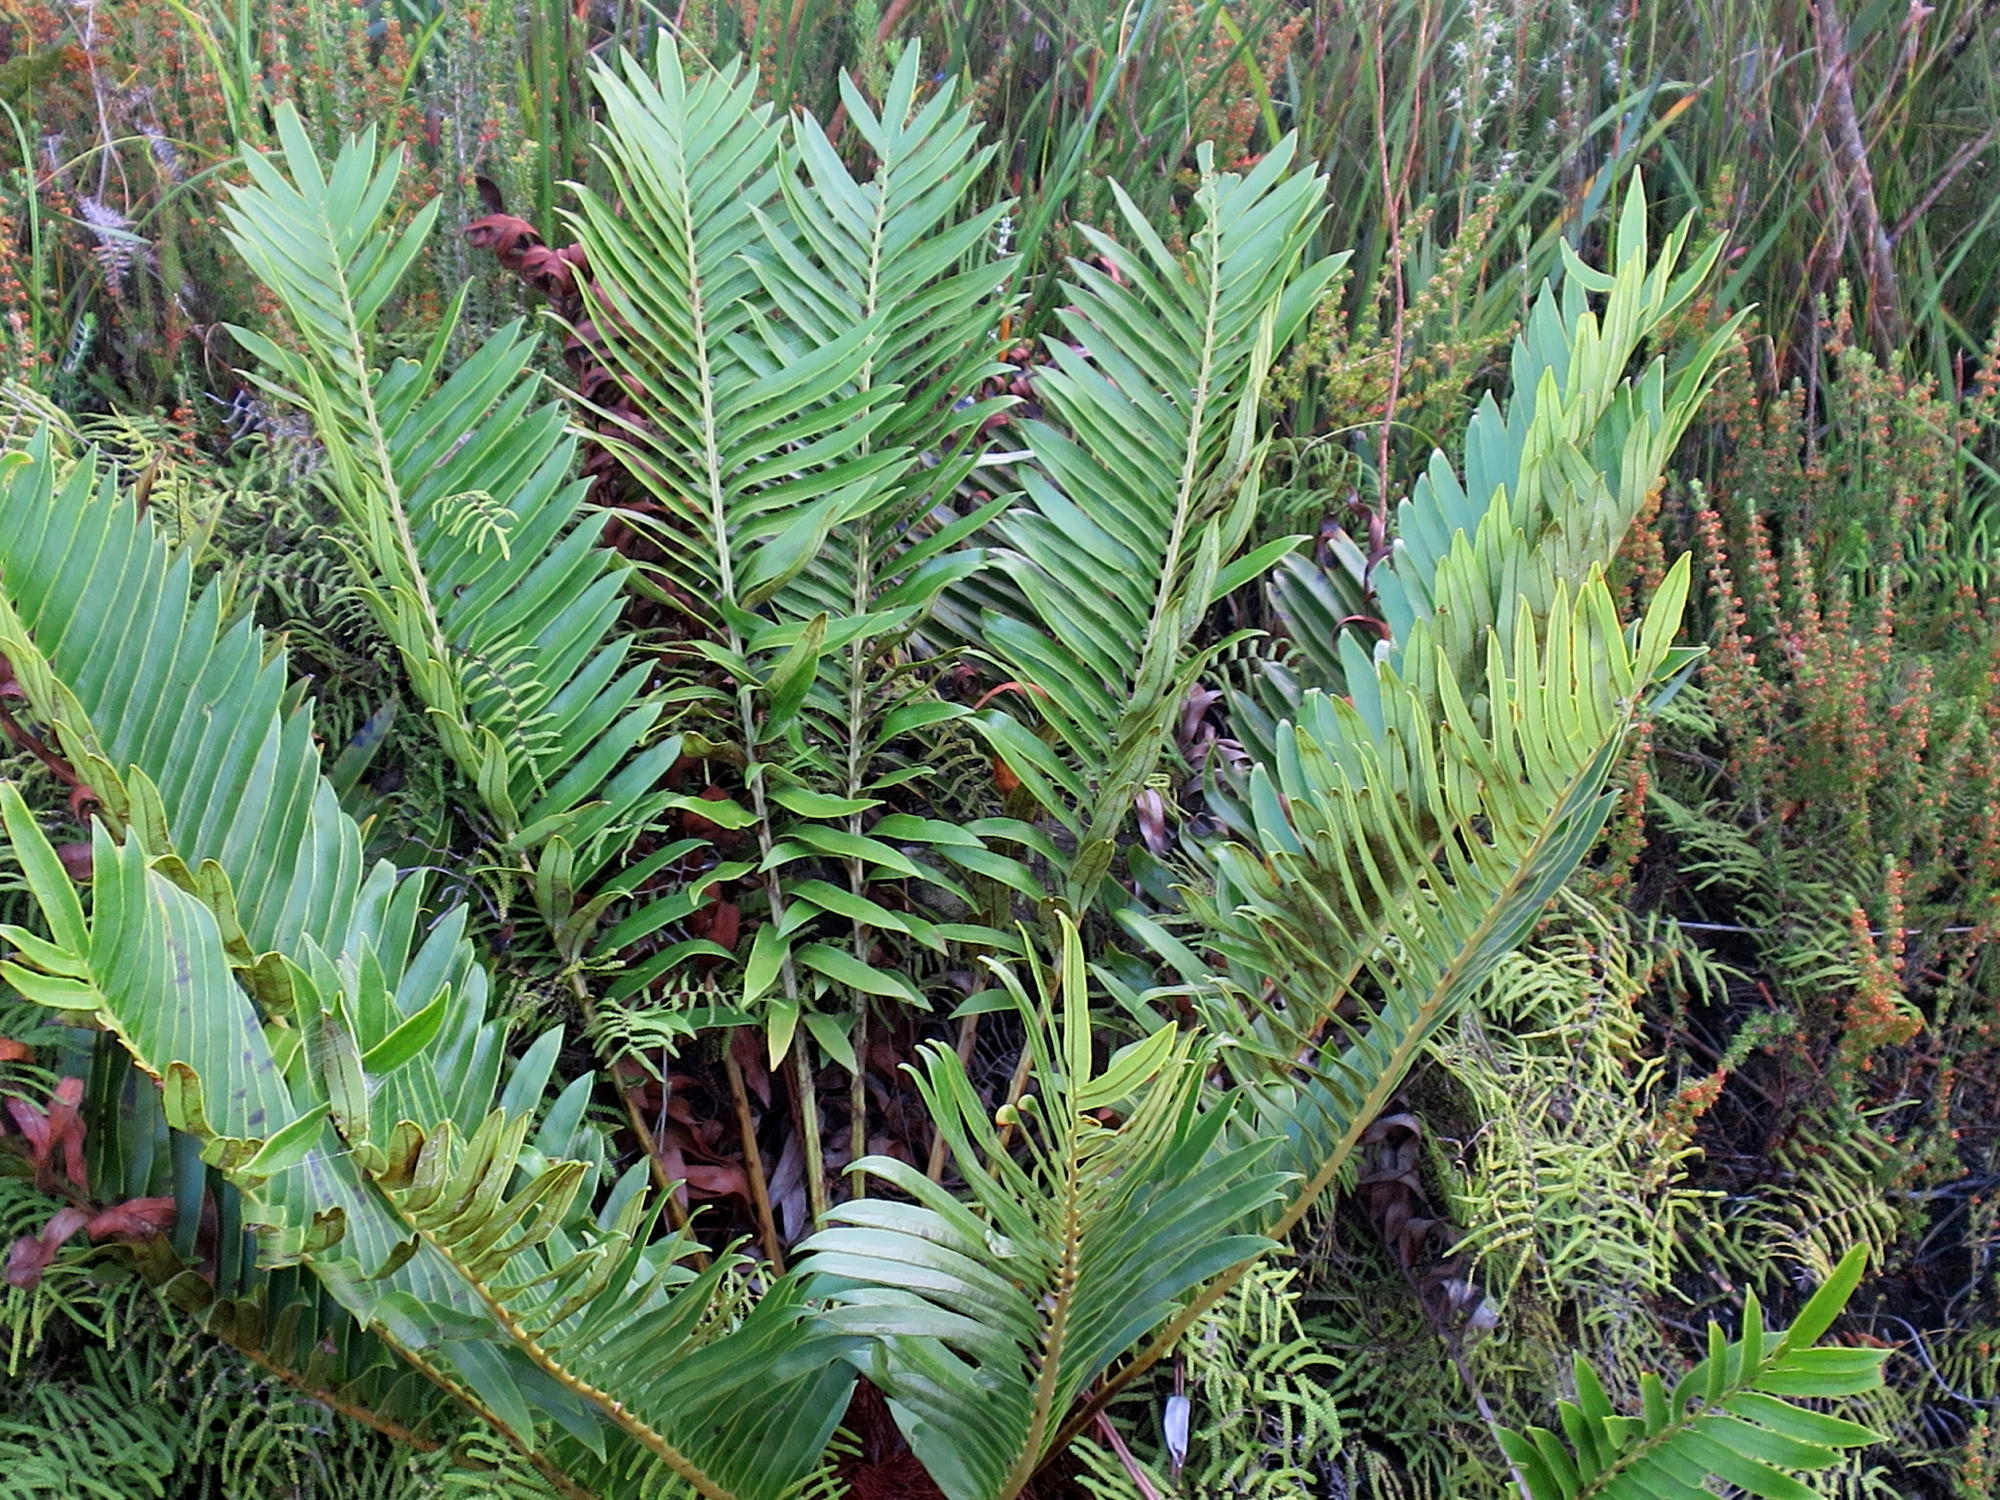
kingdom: Plantae
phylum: Tracheophyta
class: Polypodiopsida
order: Polypodiales
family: Blechnaceae
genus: Lomariocycas
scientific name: Lomariocycas tabularis
